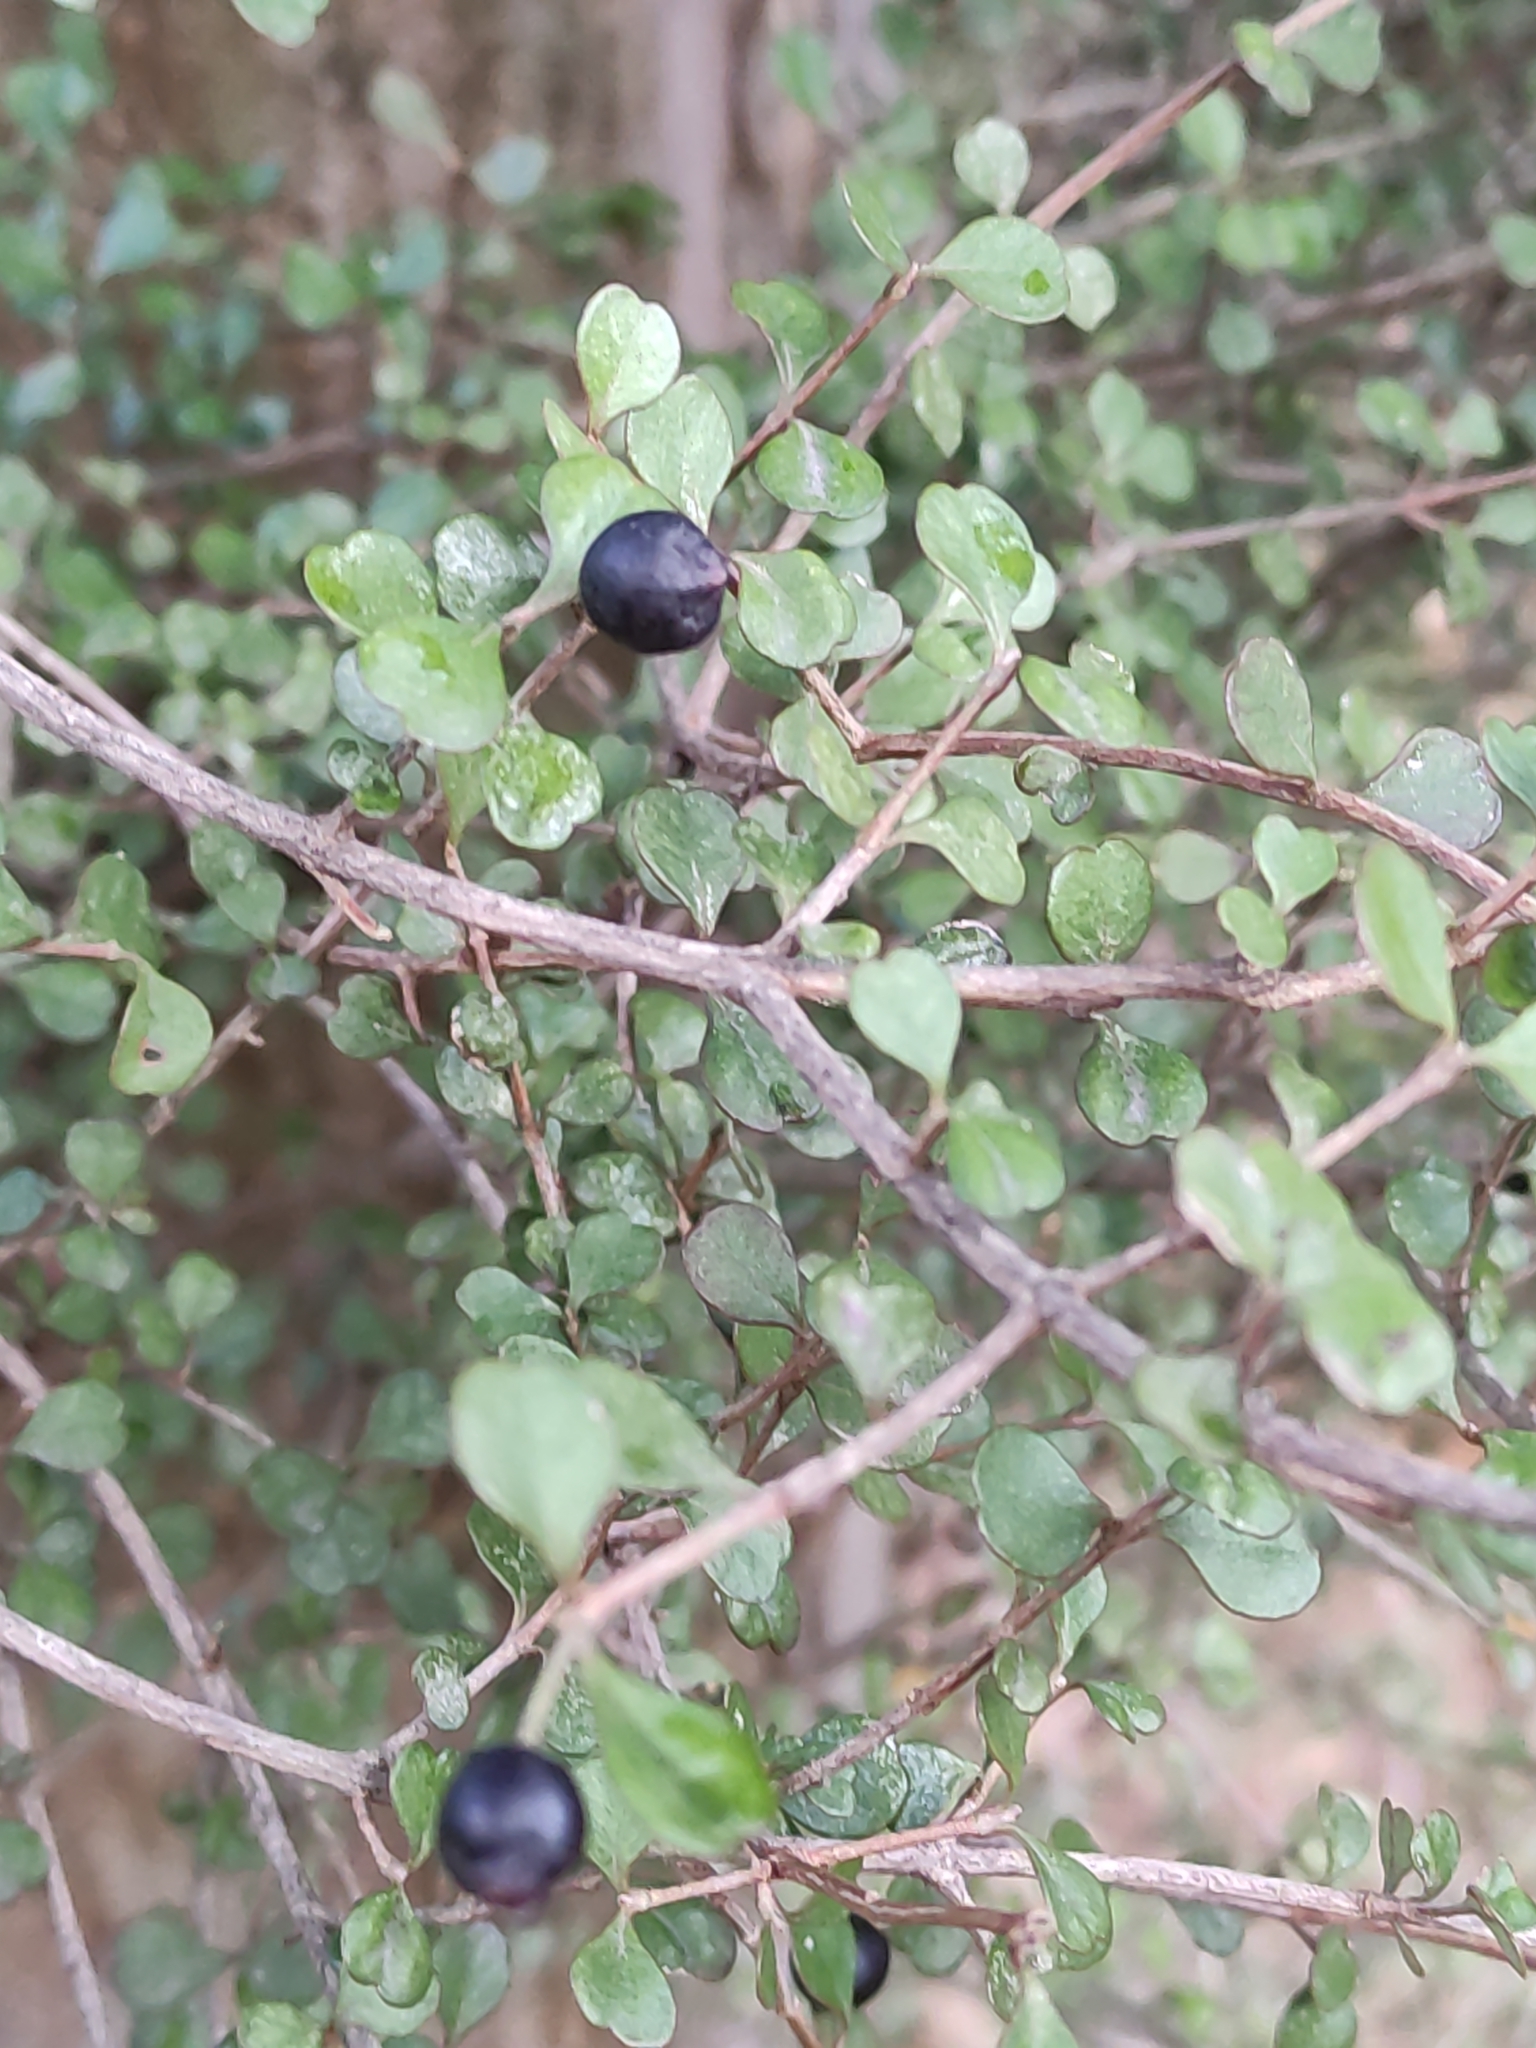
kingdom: Plantae
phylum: Tracheophyta
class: Magnoliopsida
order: Myrtales
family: Myrtaceae
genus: Lophomyrtus
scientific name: Lophomyrtus obcordata
